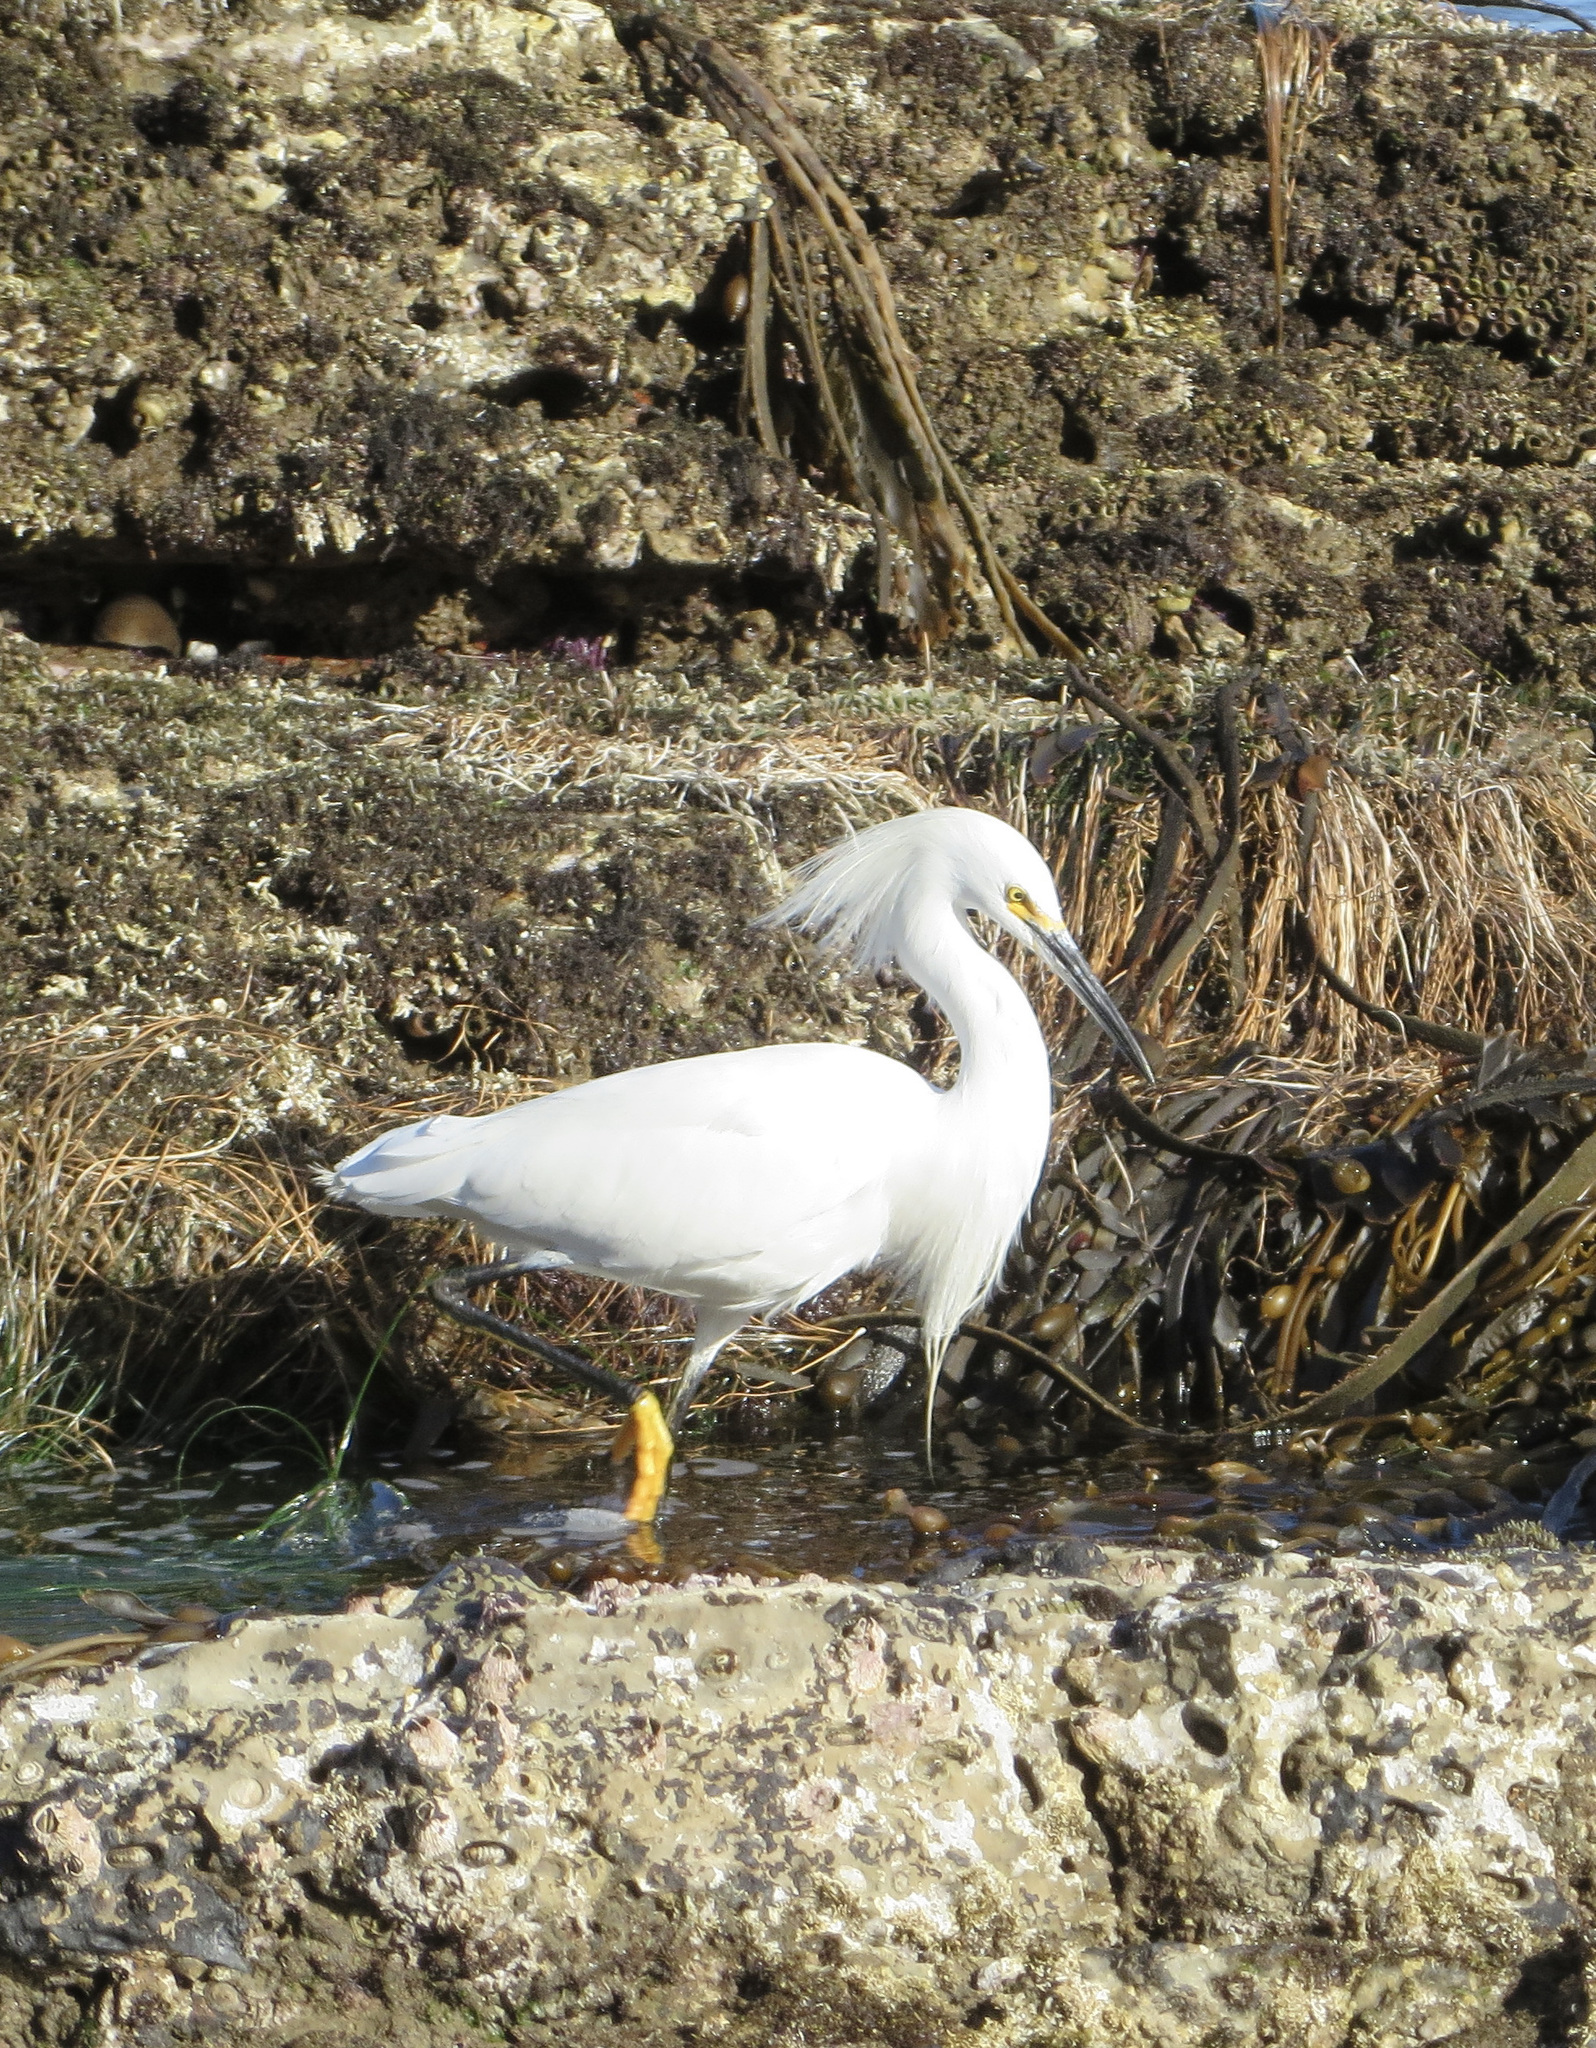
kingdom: Animalia
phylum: Chordata
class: Aves
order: Pelecaniformes
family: Ardeidae
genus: Egretta
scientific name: Egretta thula
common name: Snowy egret
